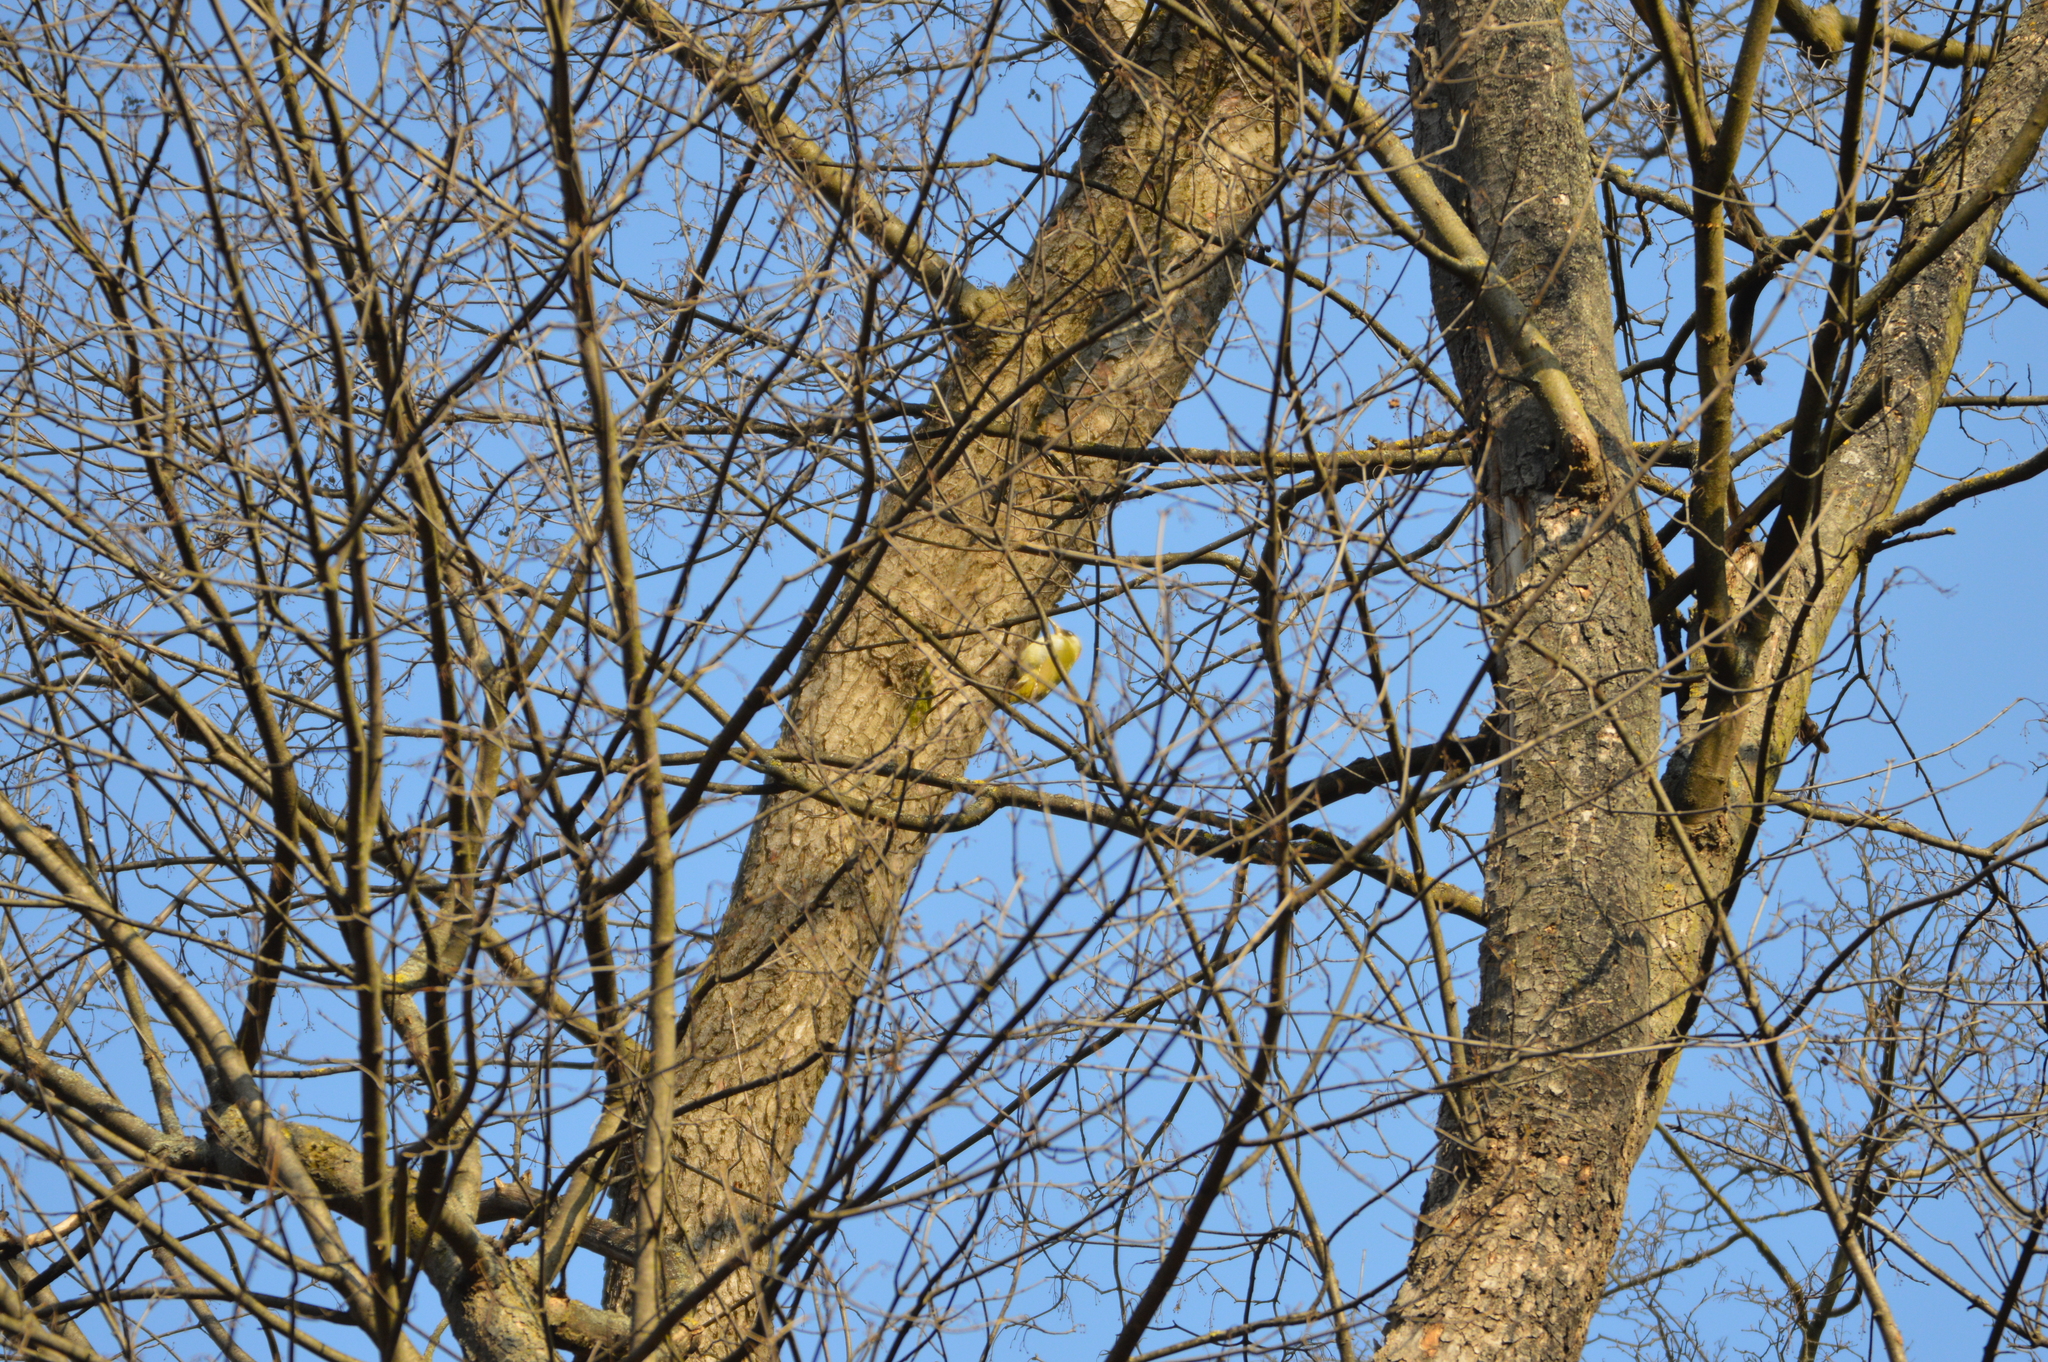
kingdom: Animalia
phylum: Chordata
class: Aves
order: Piciformes
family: Picidae
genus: Picus
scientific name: Picus viridis
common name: European green woodpecker
